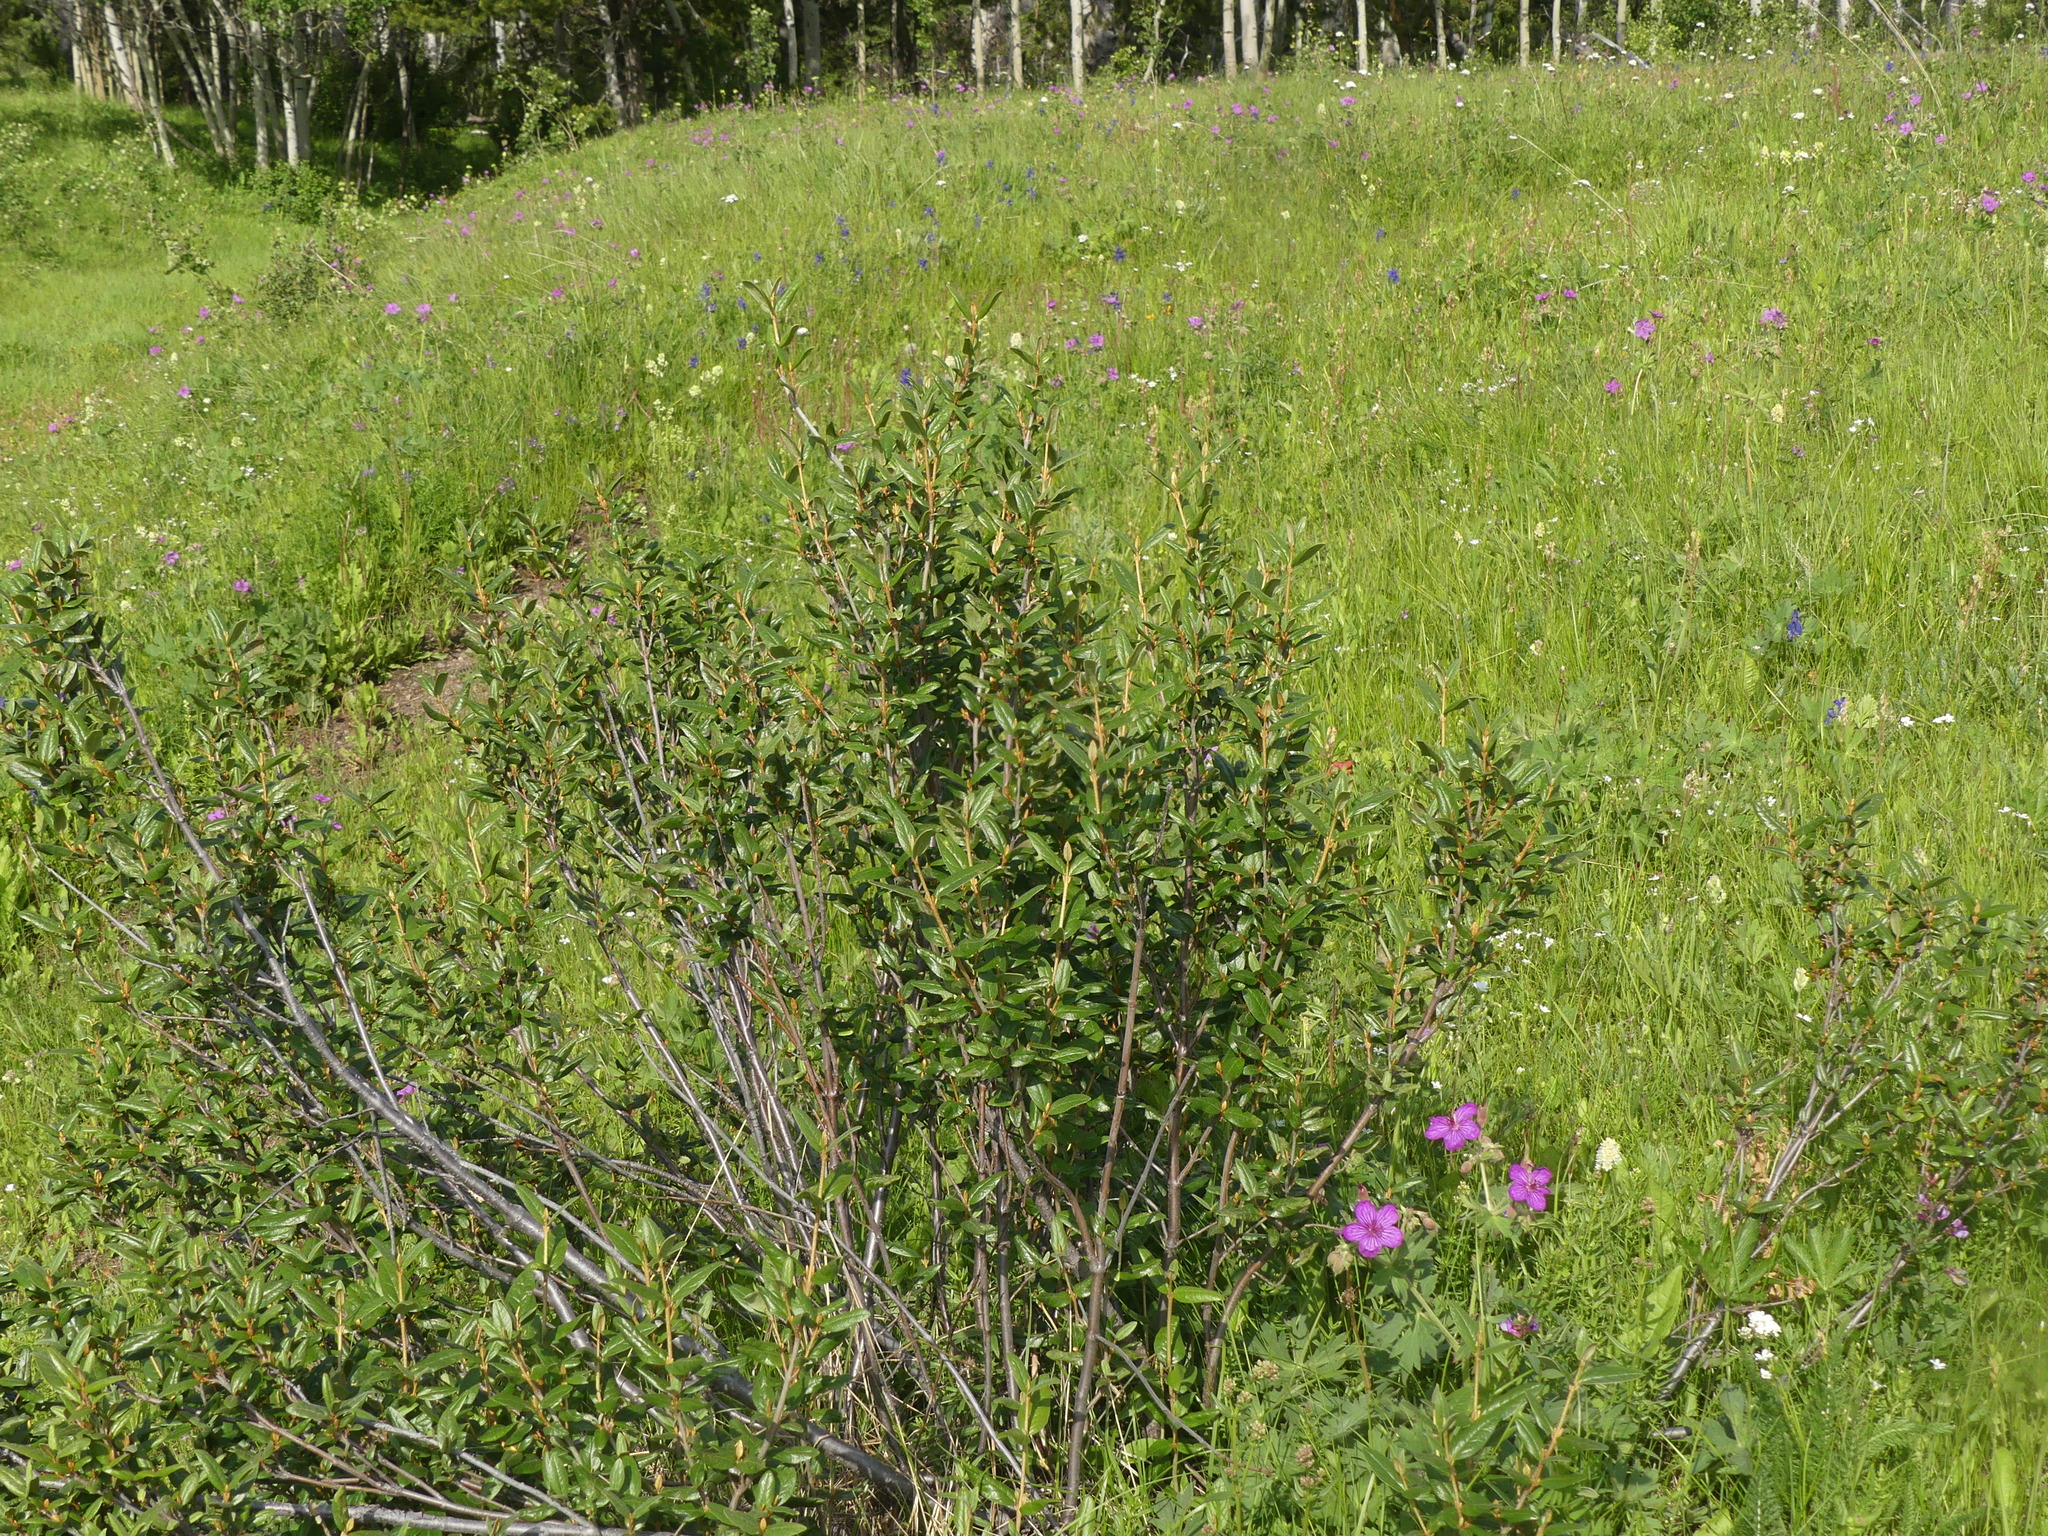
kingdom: Plantae
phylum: Tracheophyta
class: Magnoliopsida
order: Rosales
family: Elaeagnaceae
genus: Shepherdia
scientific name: Shepherdia canadensis
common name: Soapberry
